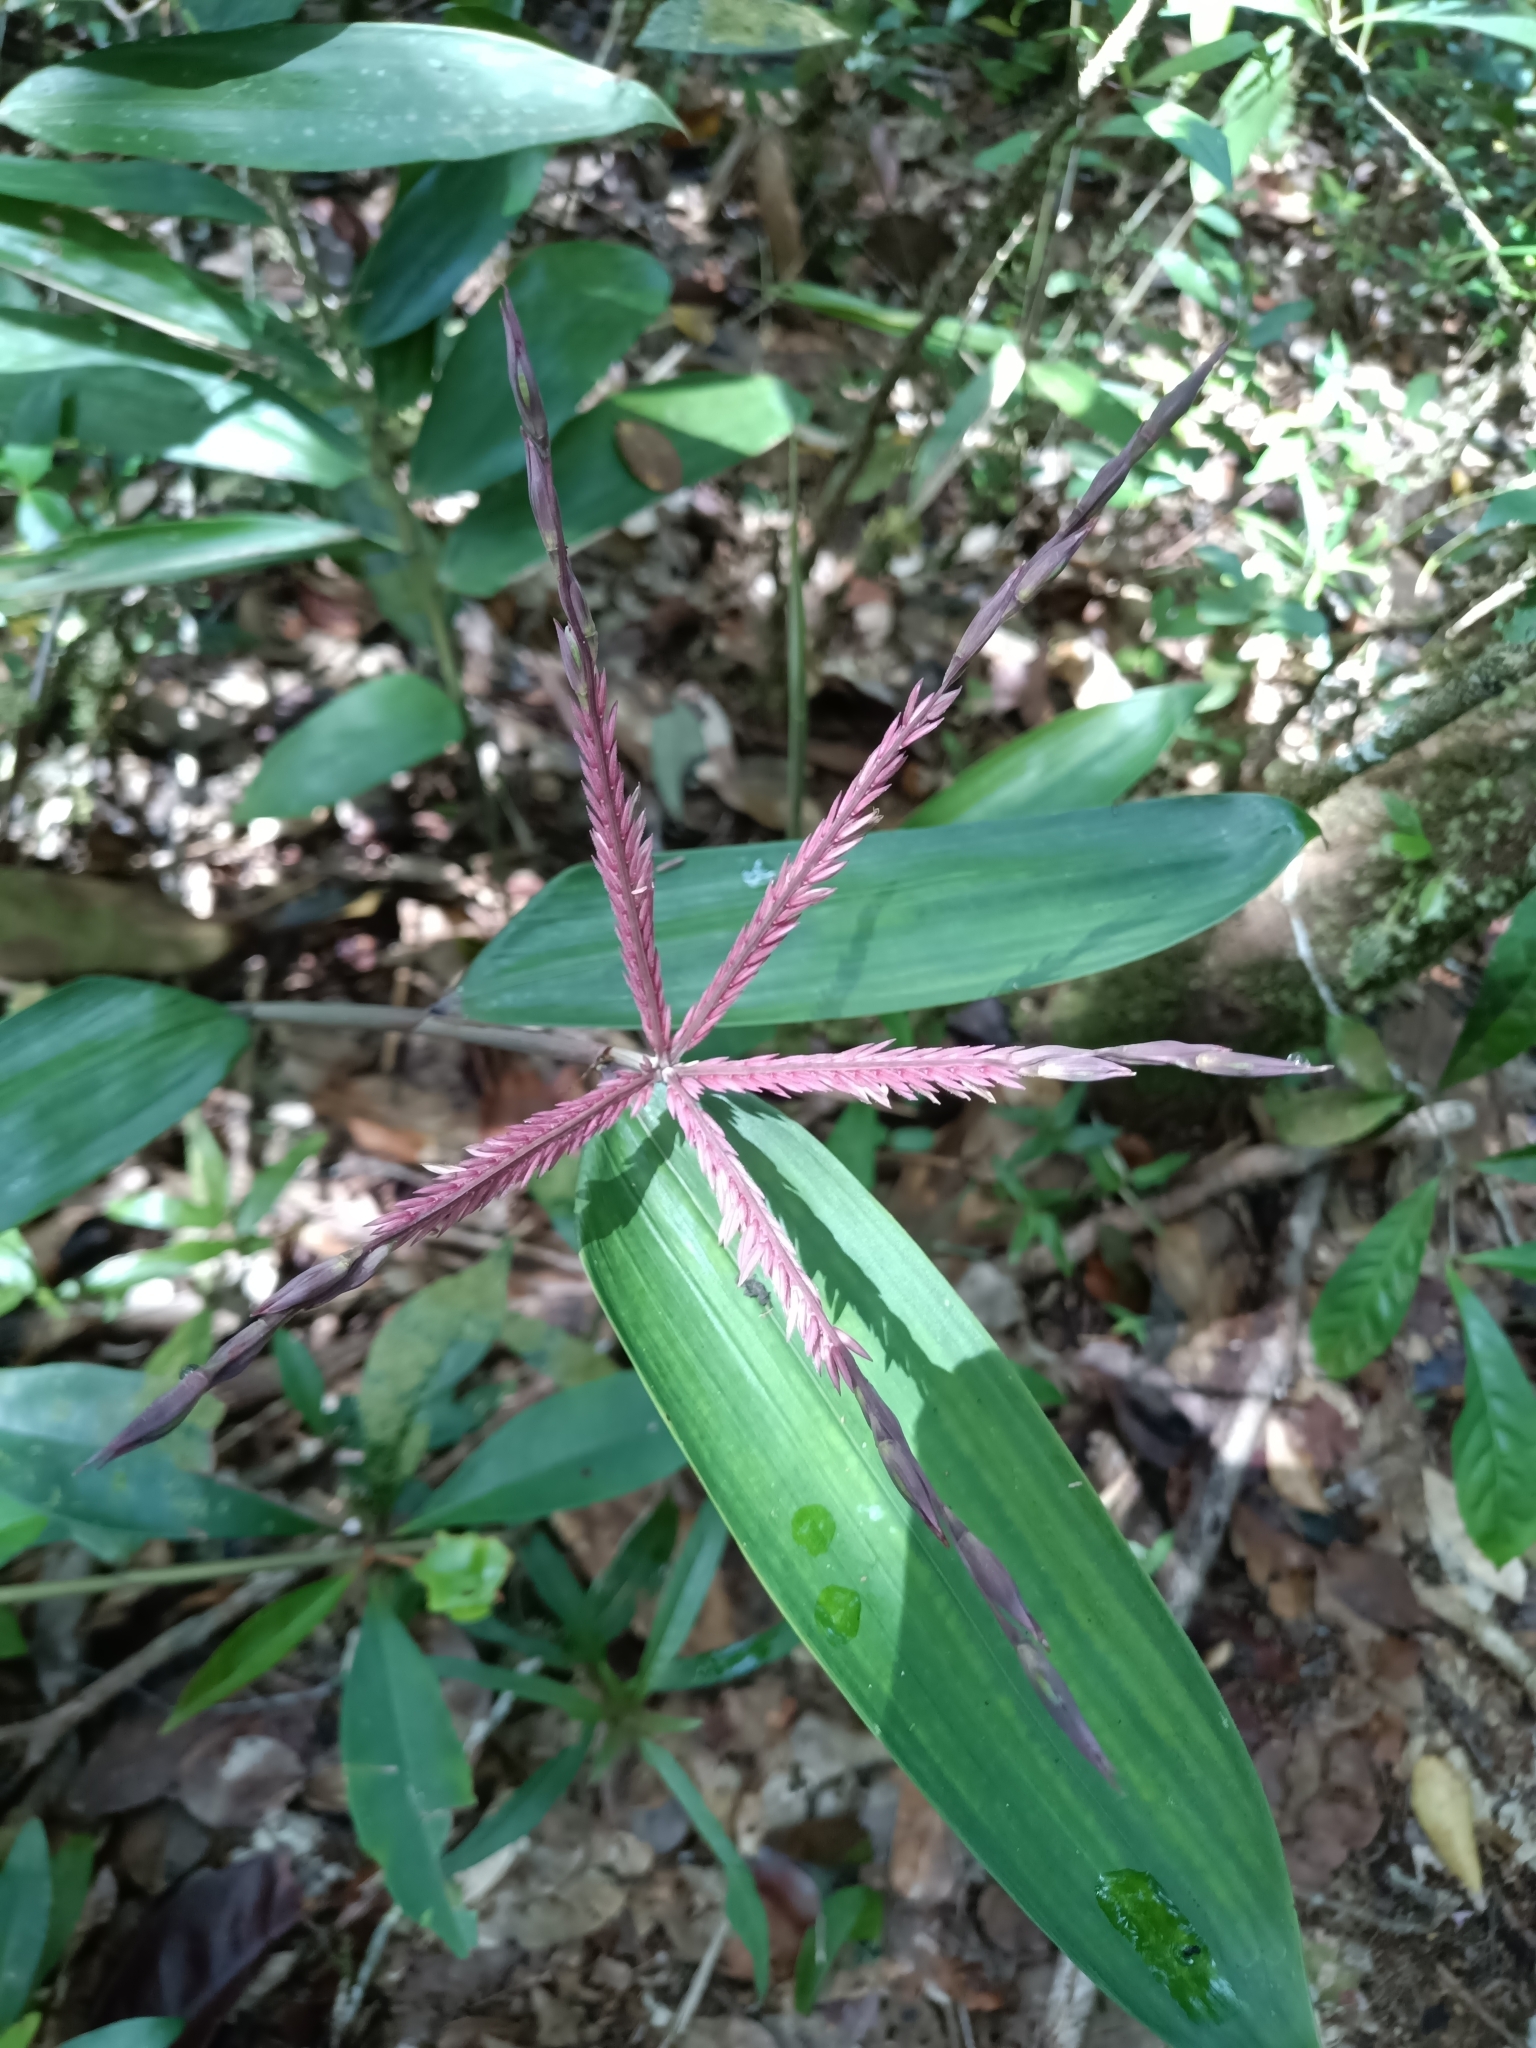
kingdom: Plantae
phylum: Tracheophyta
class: Liliopsida
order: Poales
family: Poaceae
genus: Olyra
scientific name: Olyra obliquifolia
